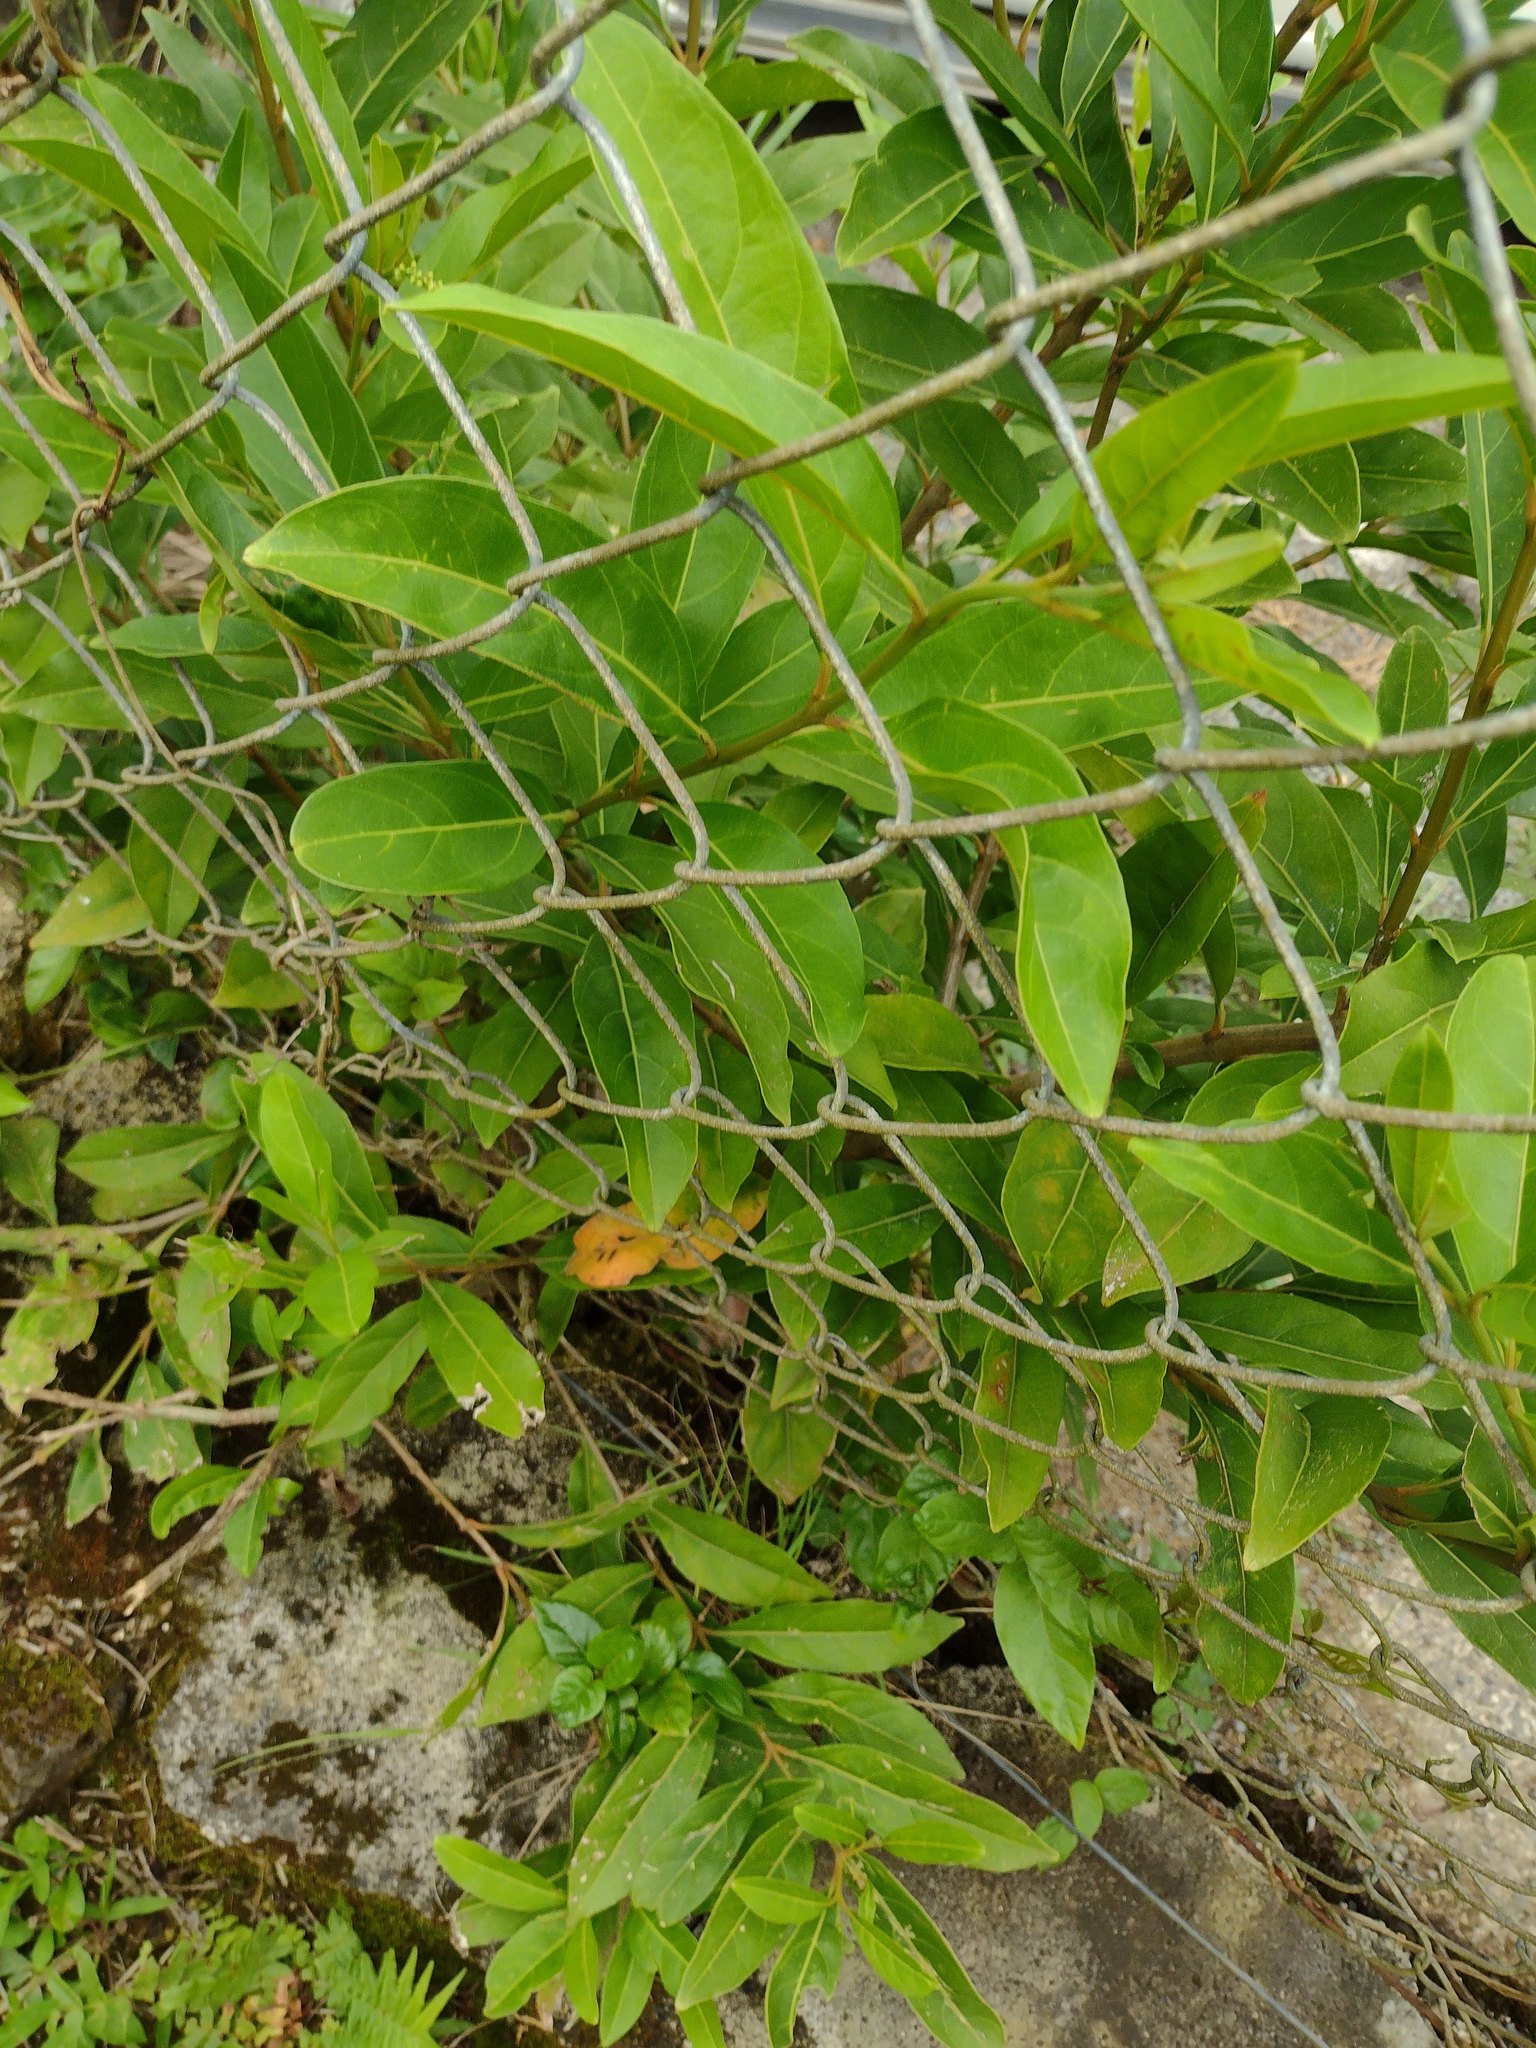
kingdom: Plantae
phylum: Tracheophyta
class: Magnoliopsida
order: Lamiales
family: Verbenaceae
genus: Citharexylum
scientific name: Citharexylum caudatum
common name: Fiddlewood
